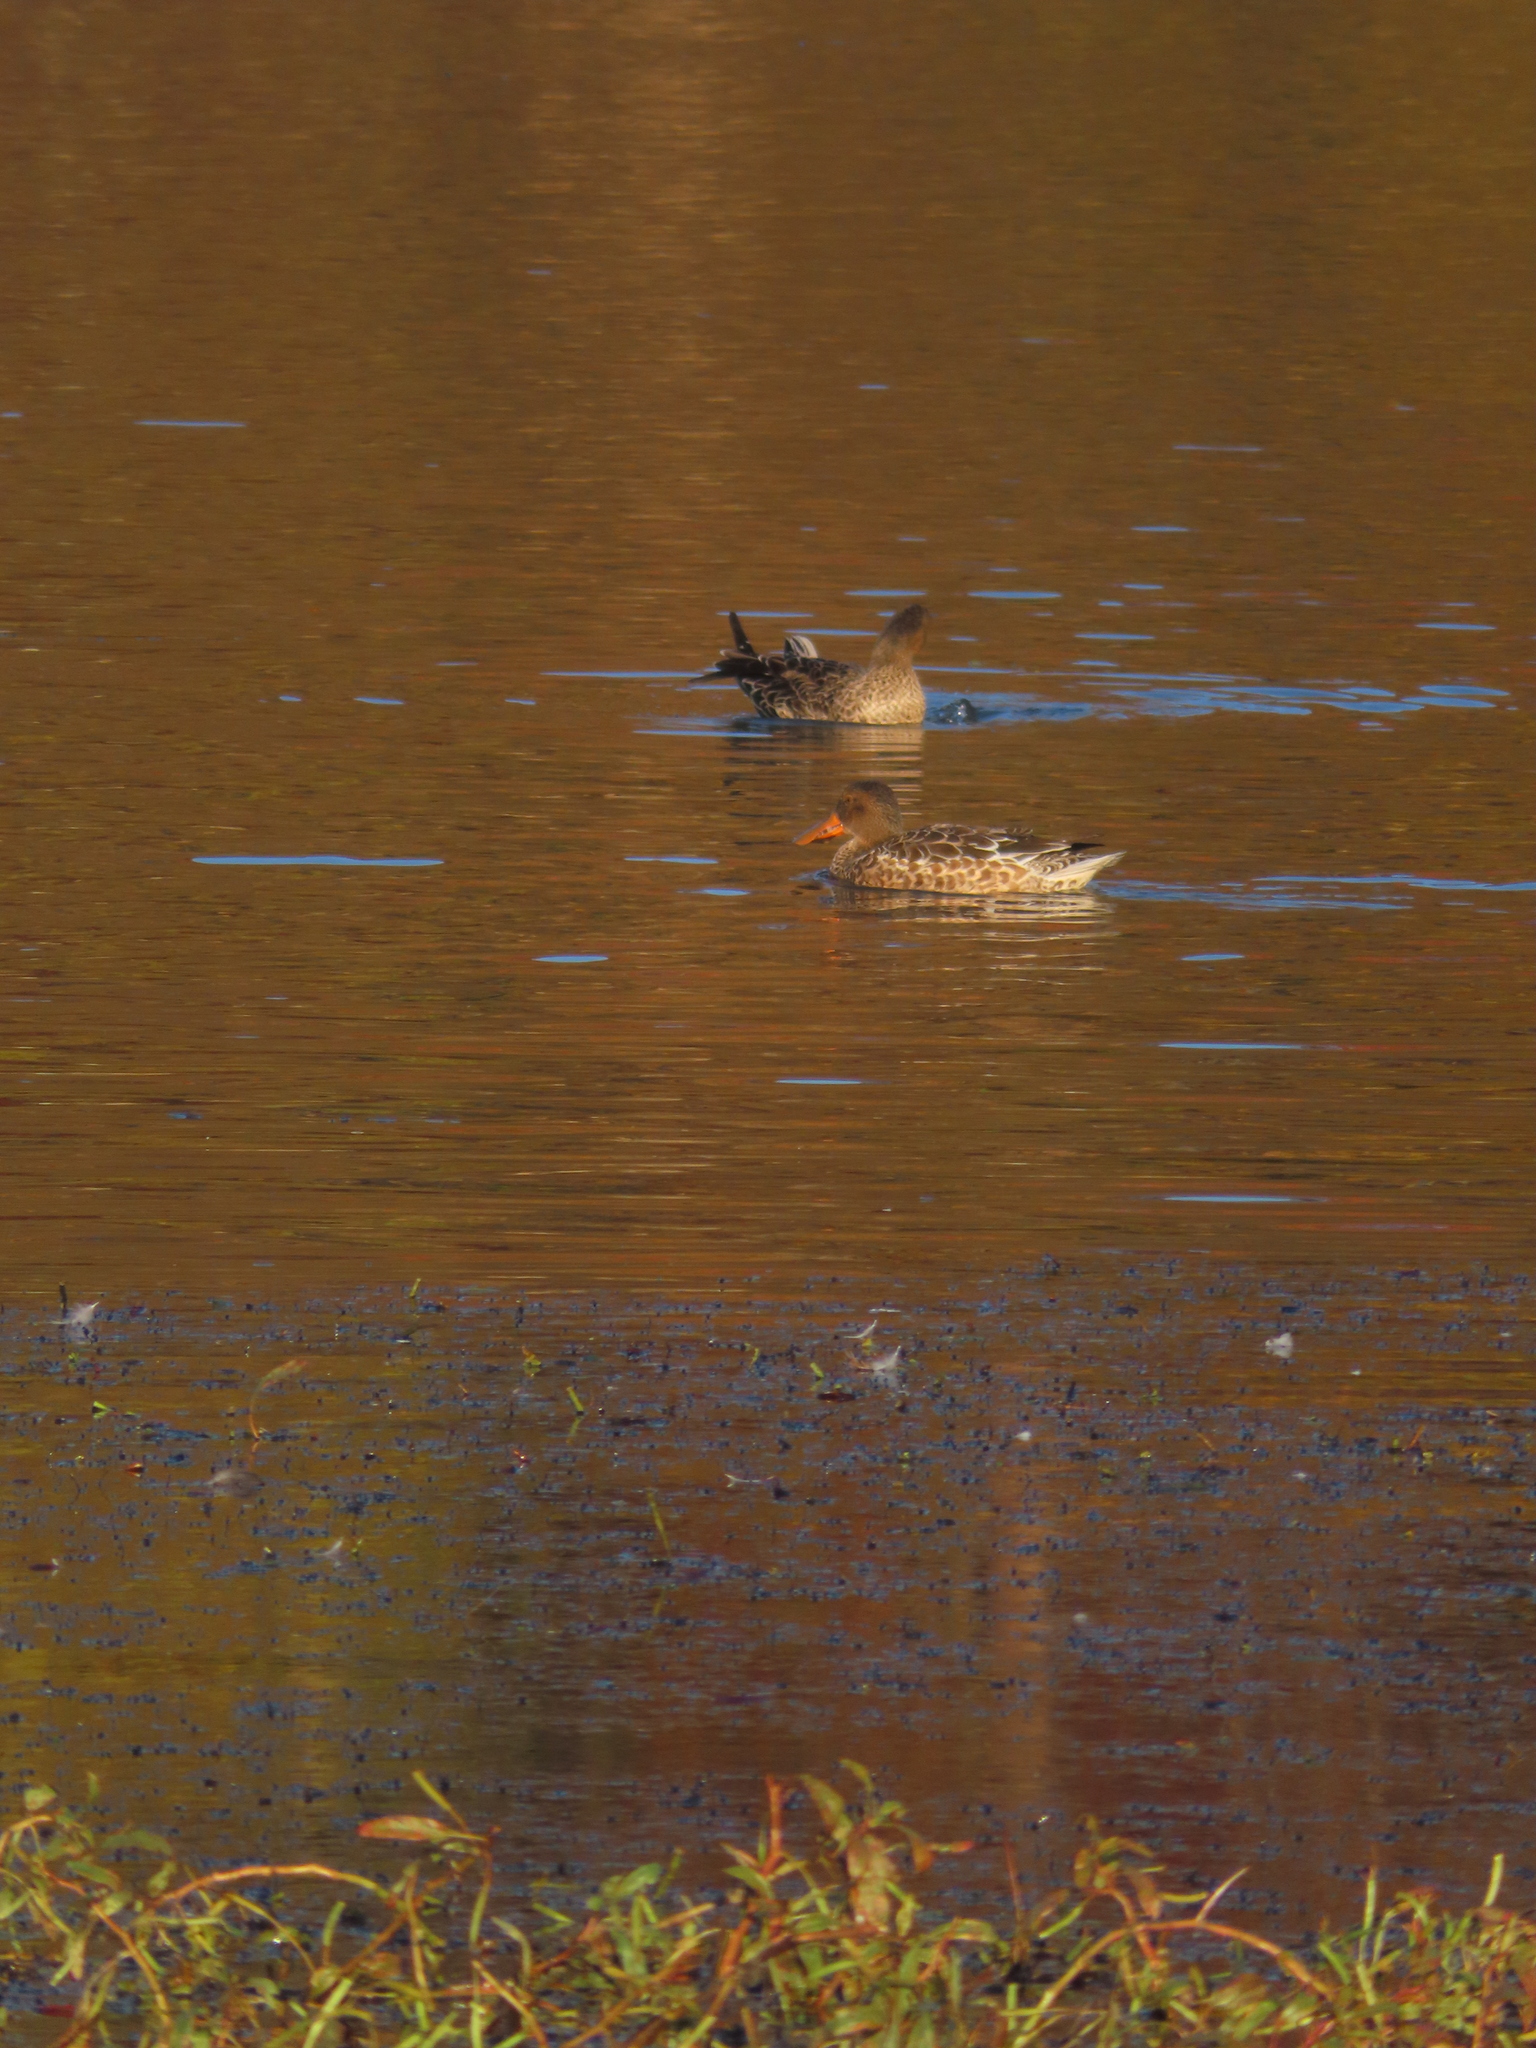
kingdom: Animalia
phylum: Chordata
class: Aves
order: Anseriformes
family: Anatidae
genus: Spatula
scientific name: Spatula clypeata
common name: Northern shoveler
